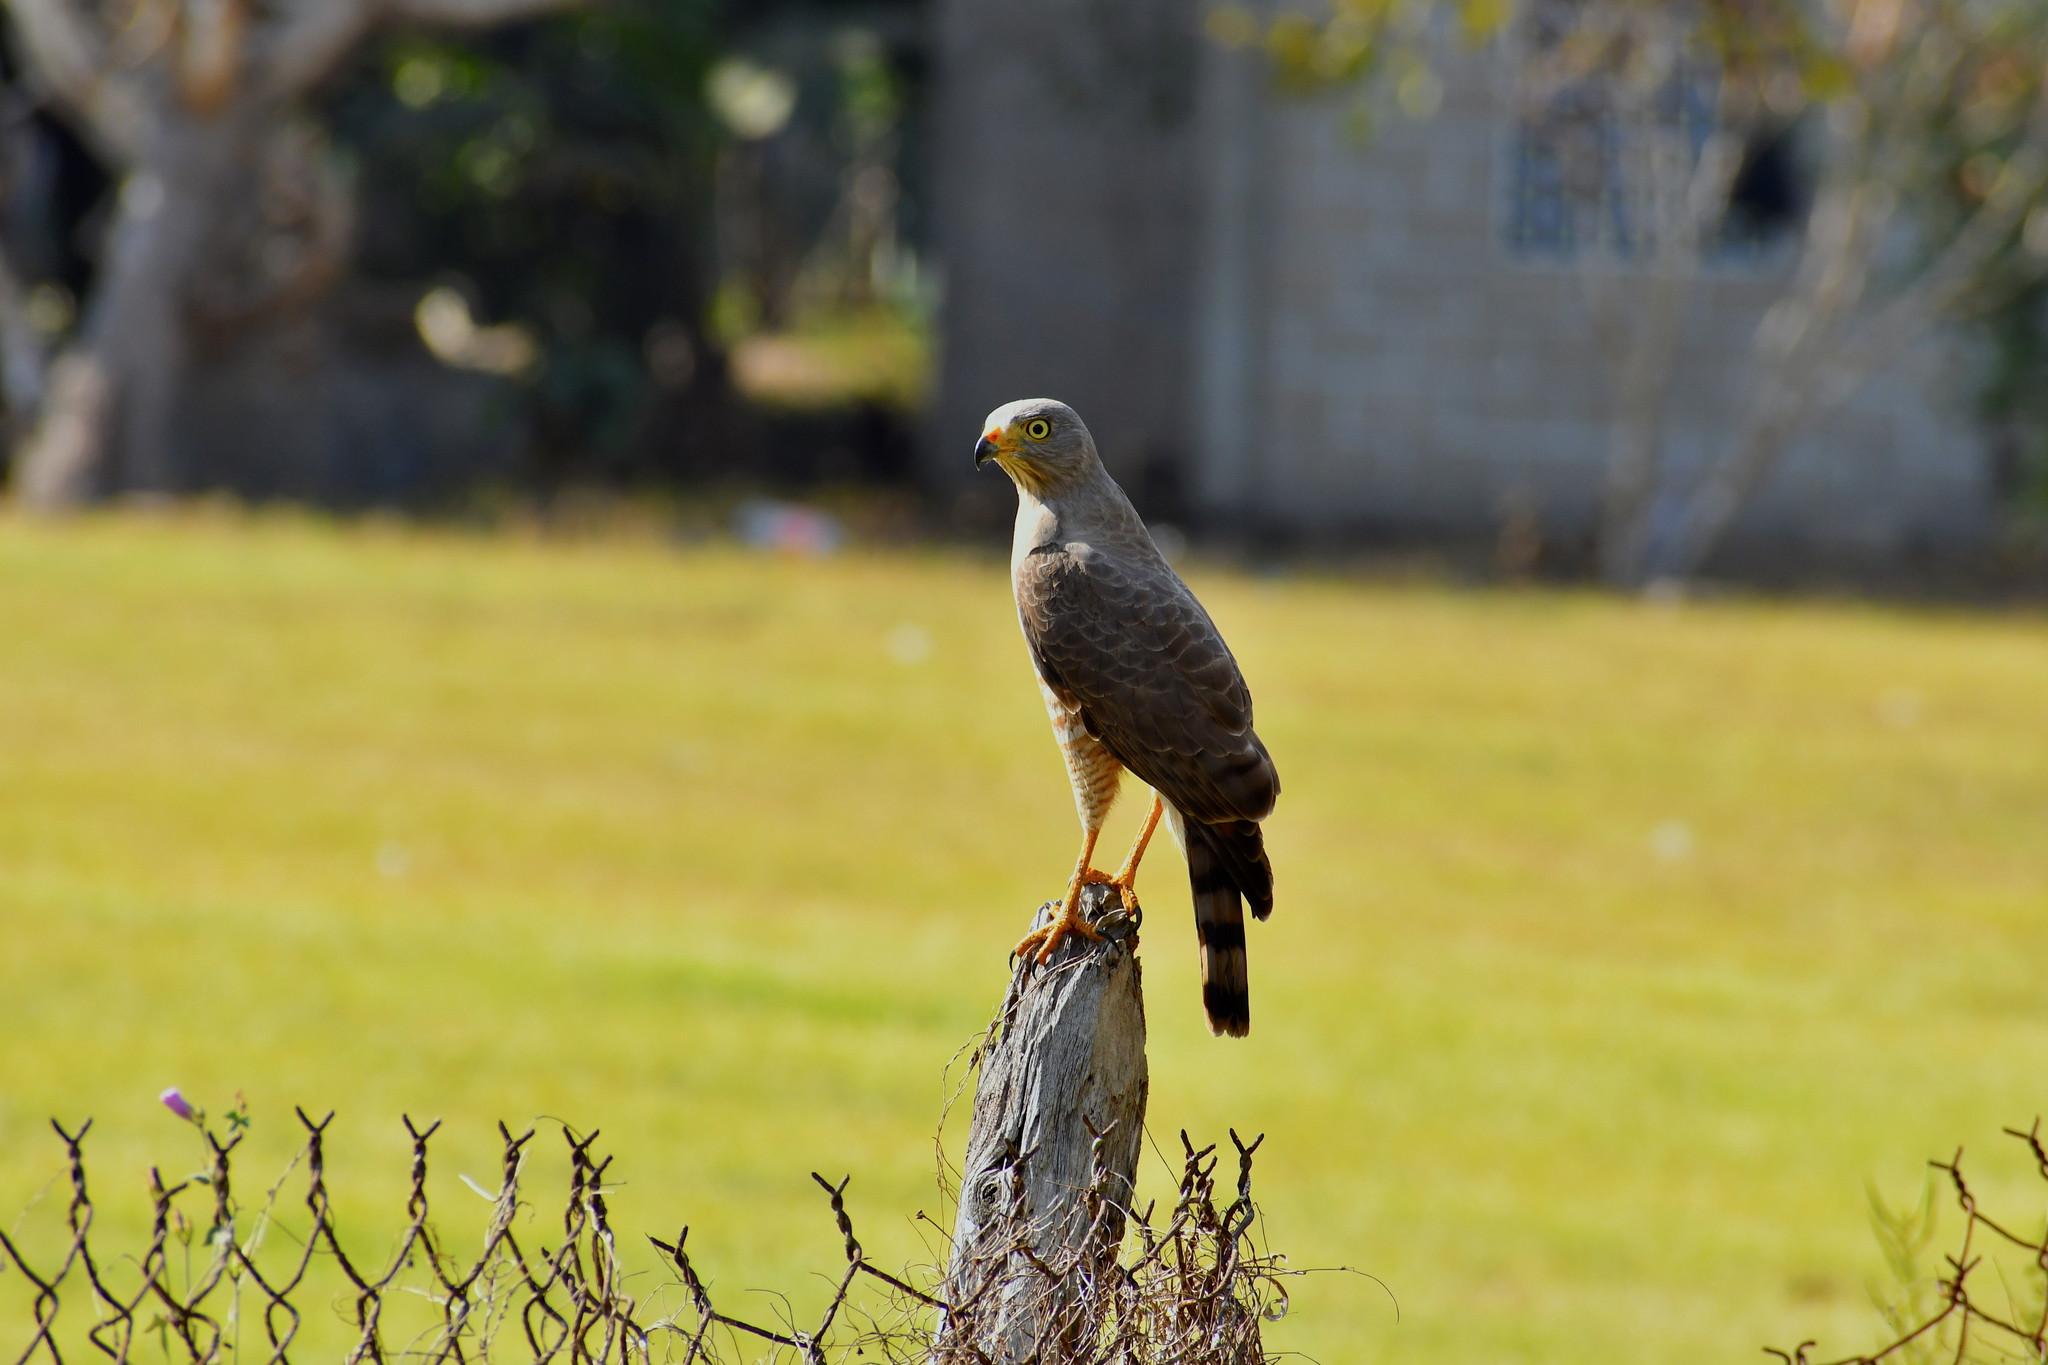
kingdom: Animalia
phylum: Chordata
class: Aves
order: Accipitriformes
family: Accipitridae
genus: Rupornis
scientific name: Rupornis magnirostris
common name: Roadside hawk
